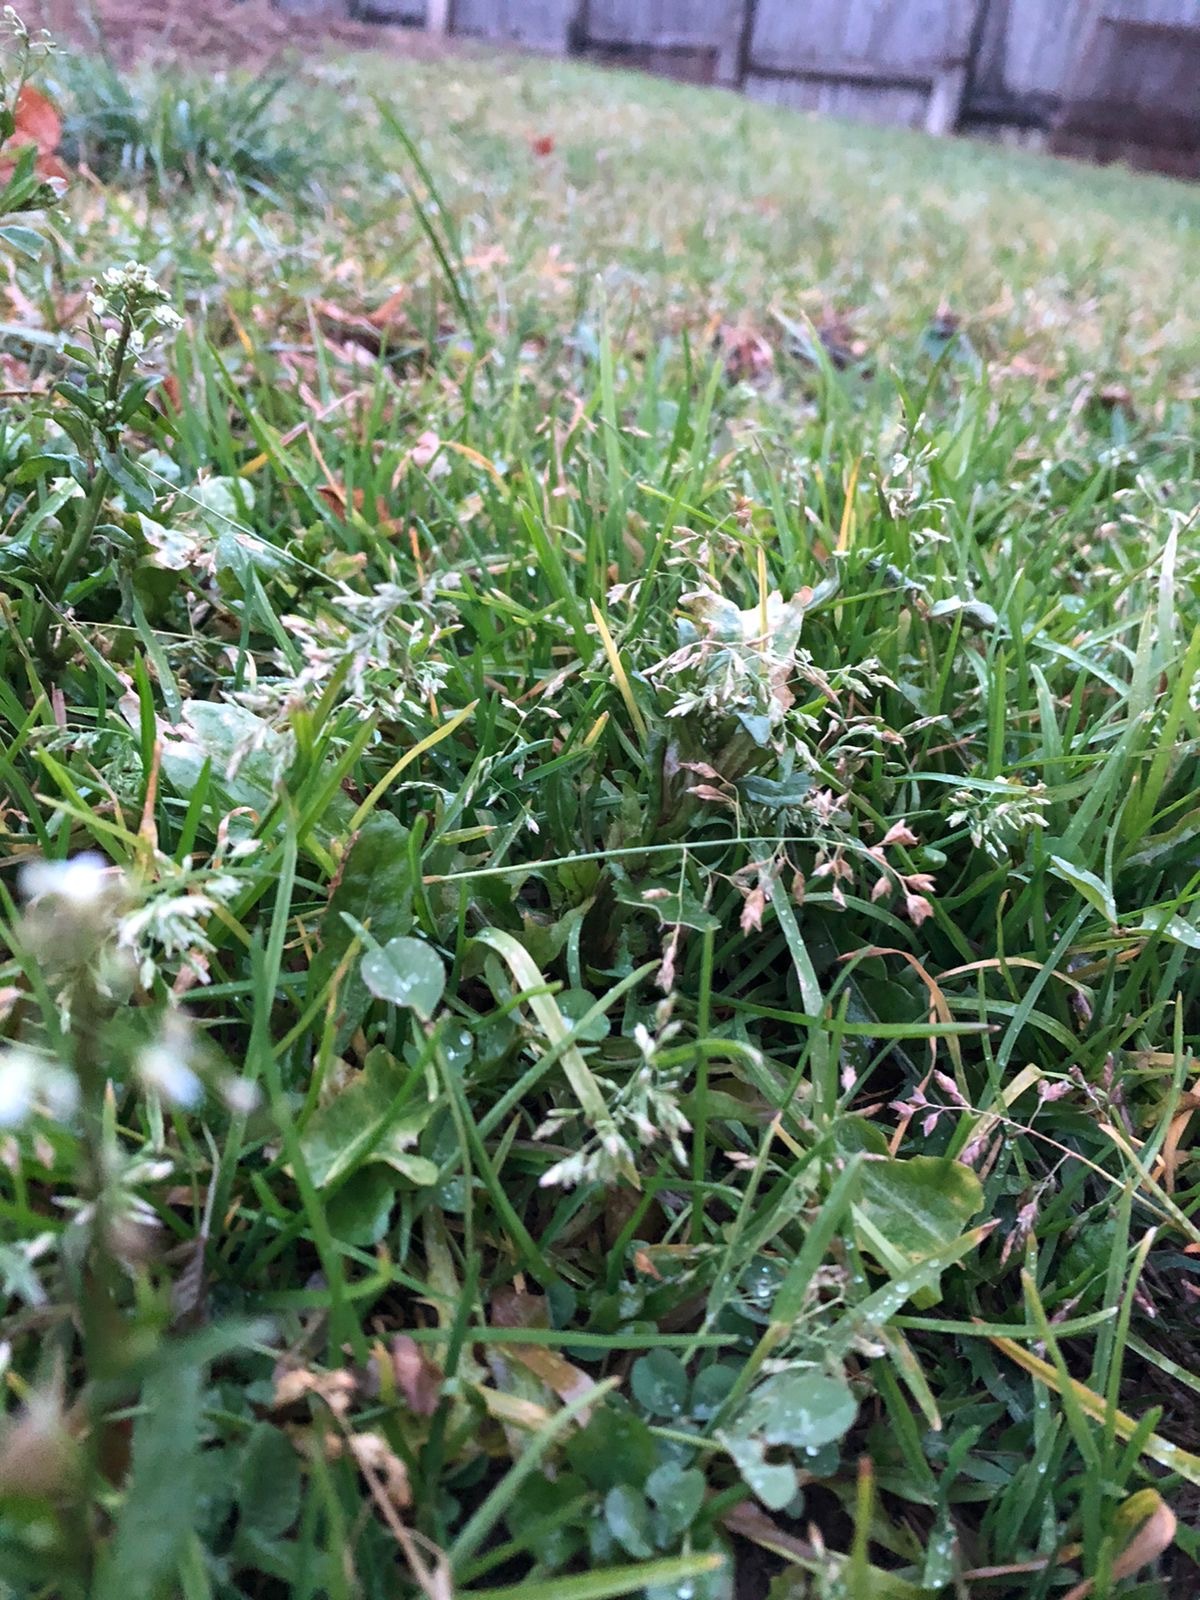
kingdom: Plantae
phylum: Tracheophyta
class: Liliopsida
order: Poales
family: Poaceae
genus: Poa
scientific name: Poa annua
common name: Annual bluegrass
